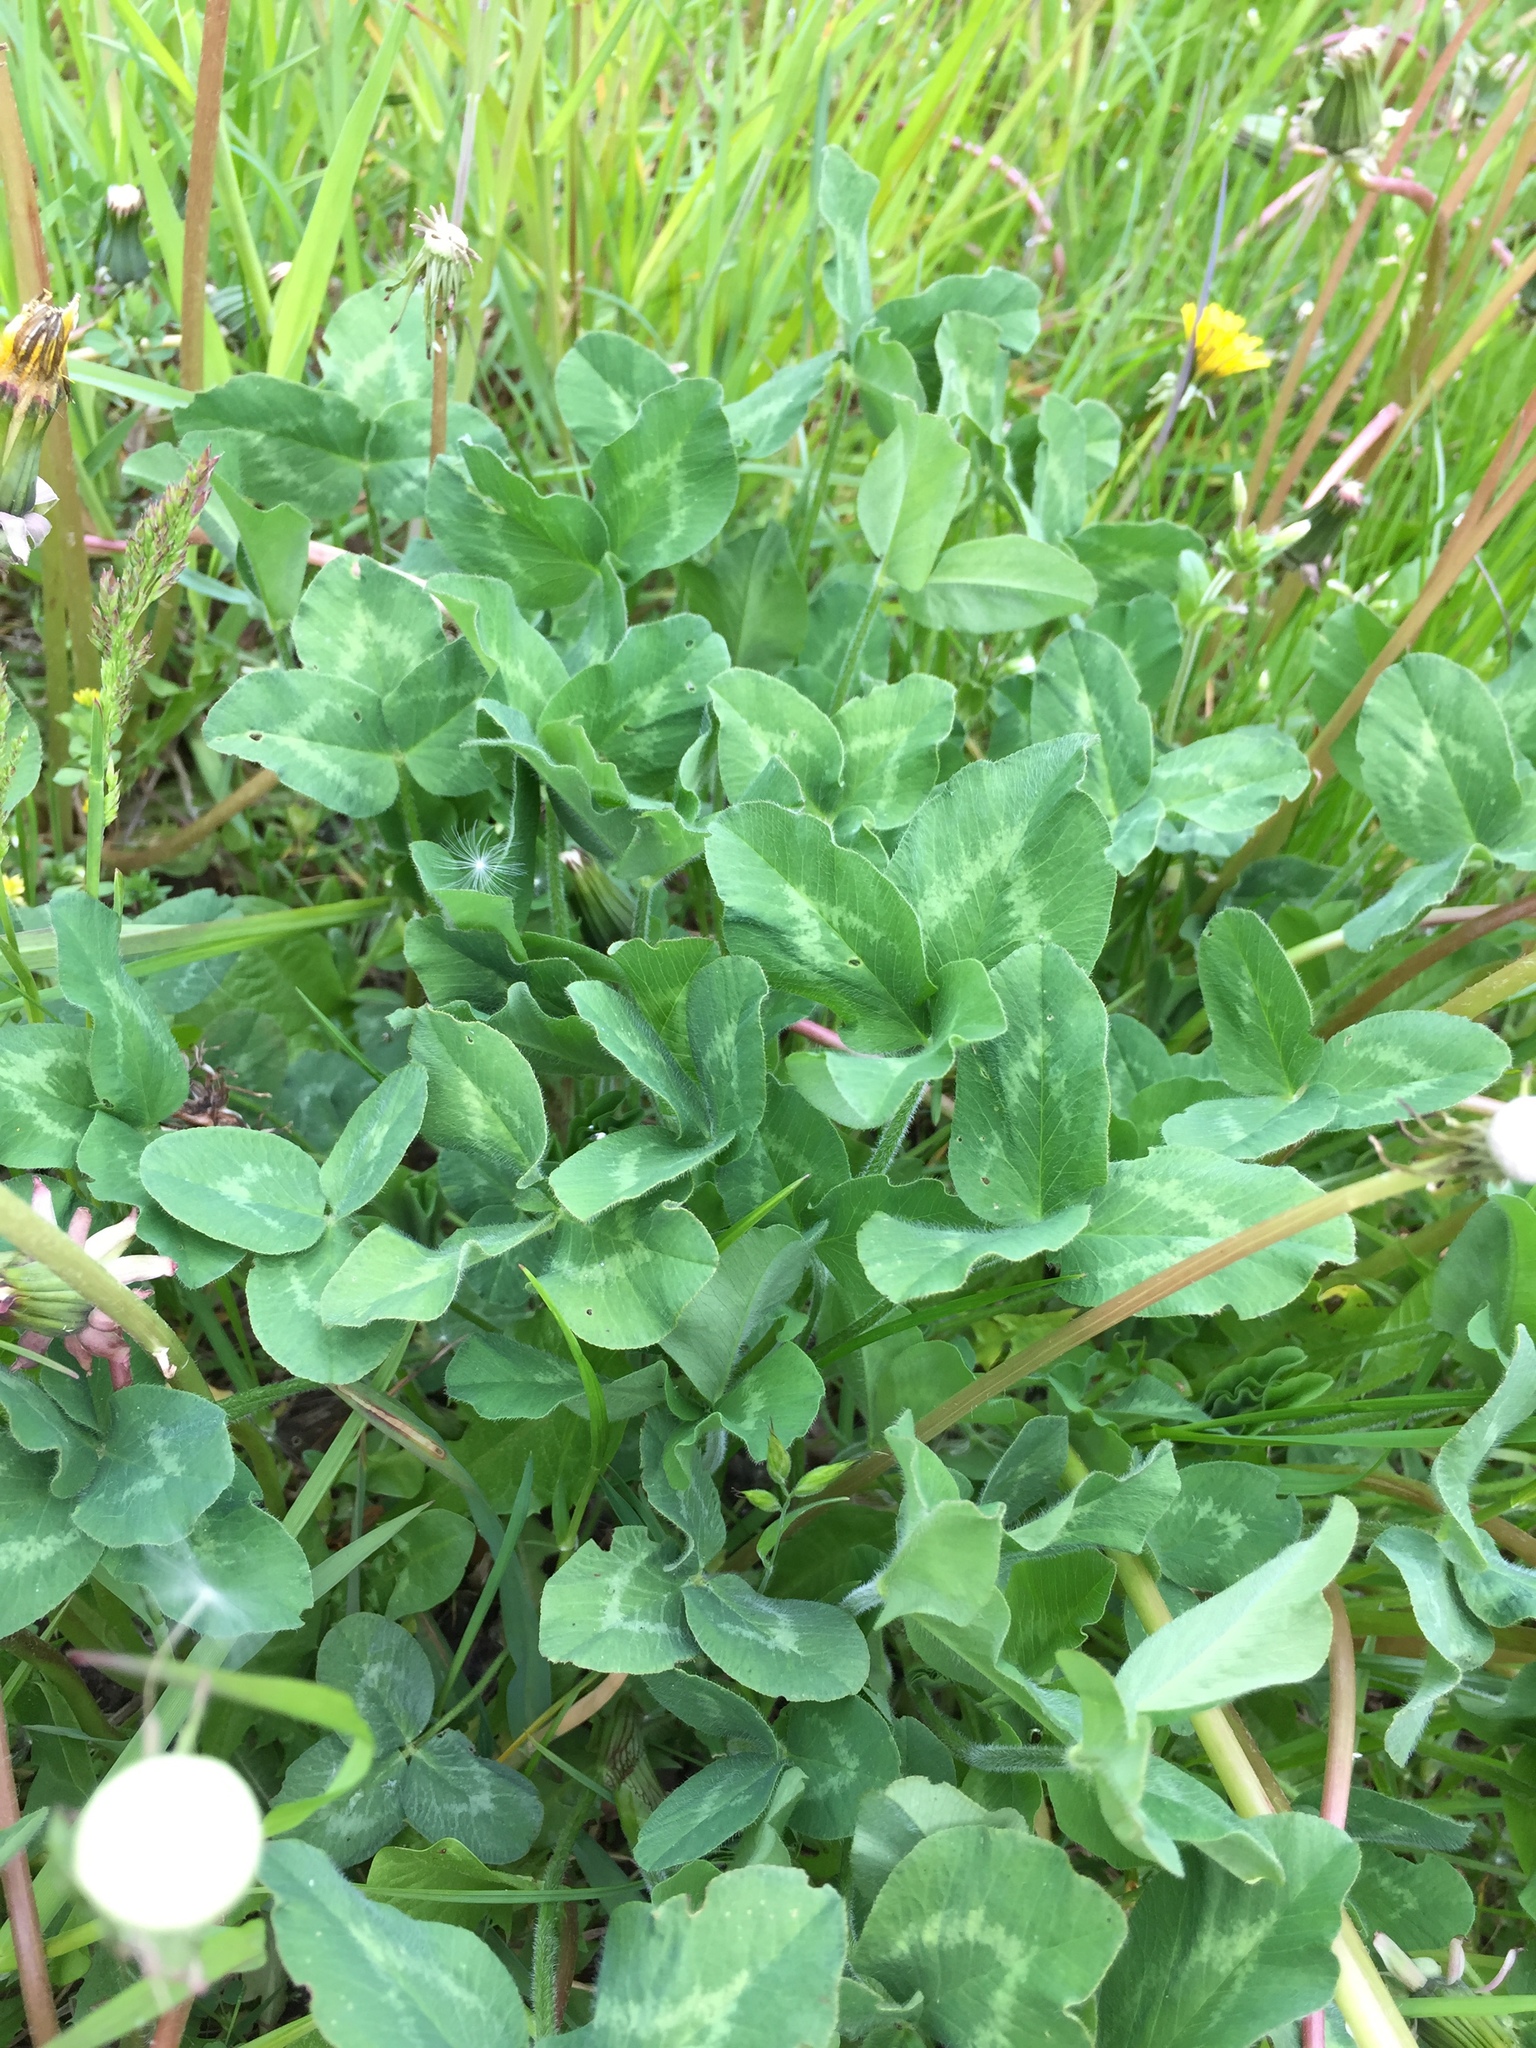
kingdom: Plantae
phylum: Tracheophyta
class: Magnoliopsida
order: Fabales
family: Fabaceae
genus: Trifolium
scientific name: Trifolium pratense
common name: Red clover
